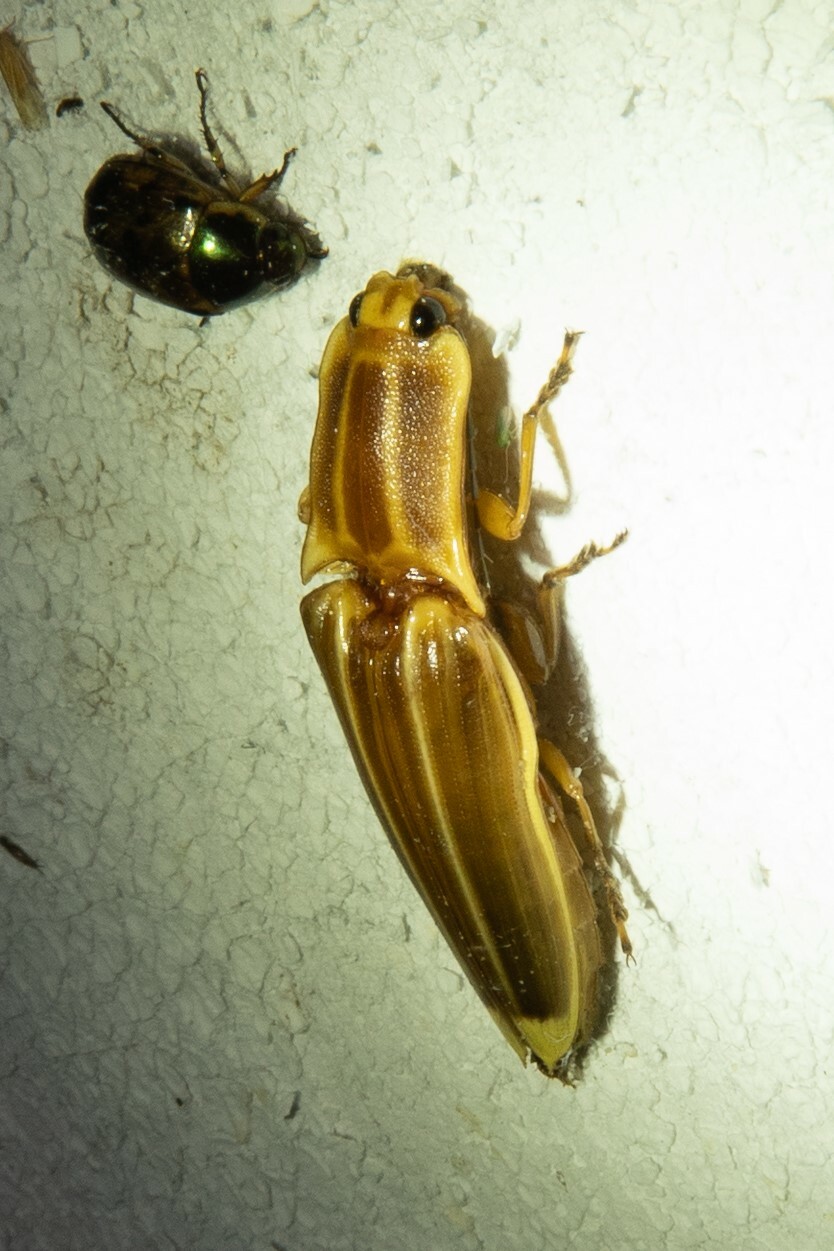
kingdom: Animalia
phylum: Arthropoda
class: Insecta
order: Coleoptera
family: Elateridae
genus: Semiotus
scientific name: Semiotus ligneus
